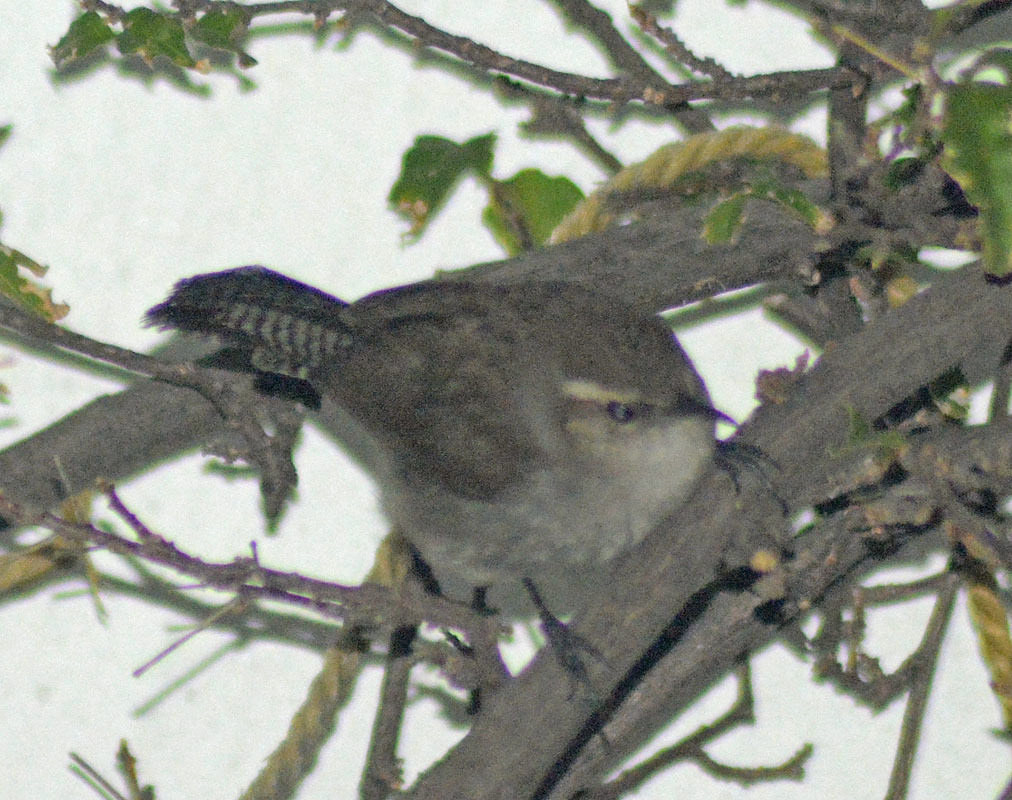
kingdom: Animalia
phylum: Chordata
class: Aves
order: Passeriformes
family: Troglodytidae
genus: Thryomanes
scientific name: Thryomanes bewickii
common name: Bewick's wren
